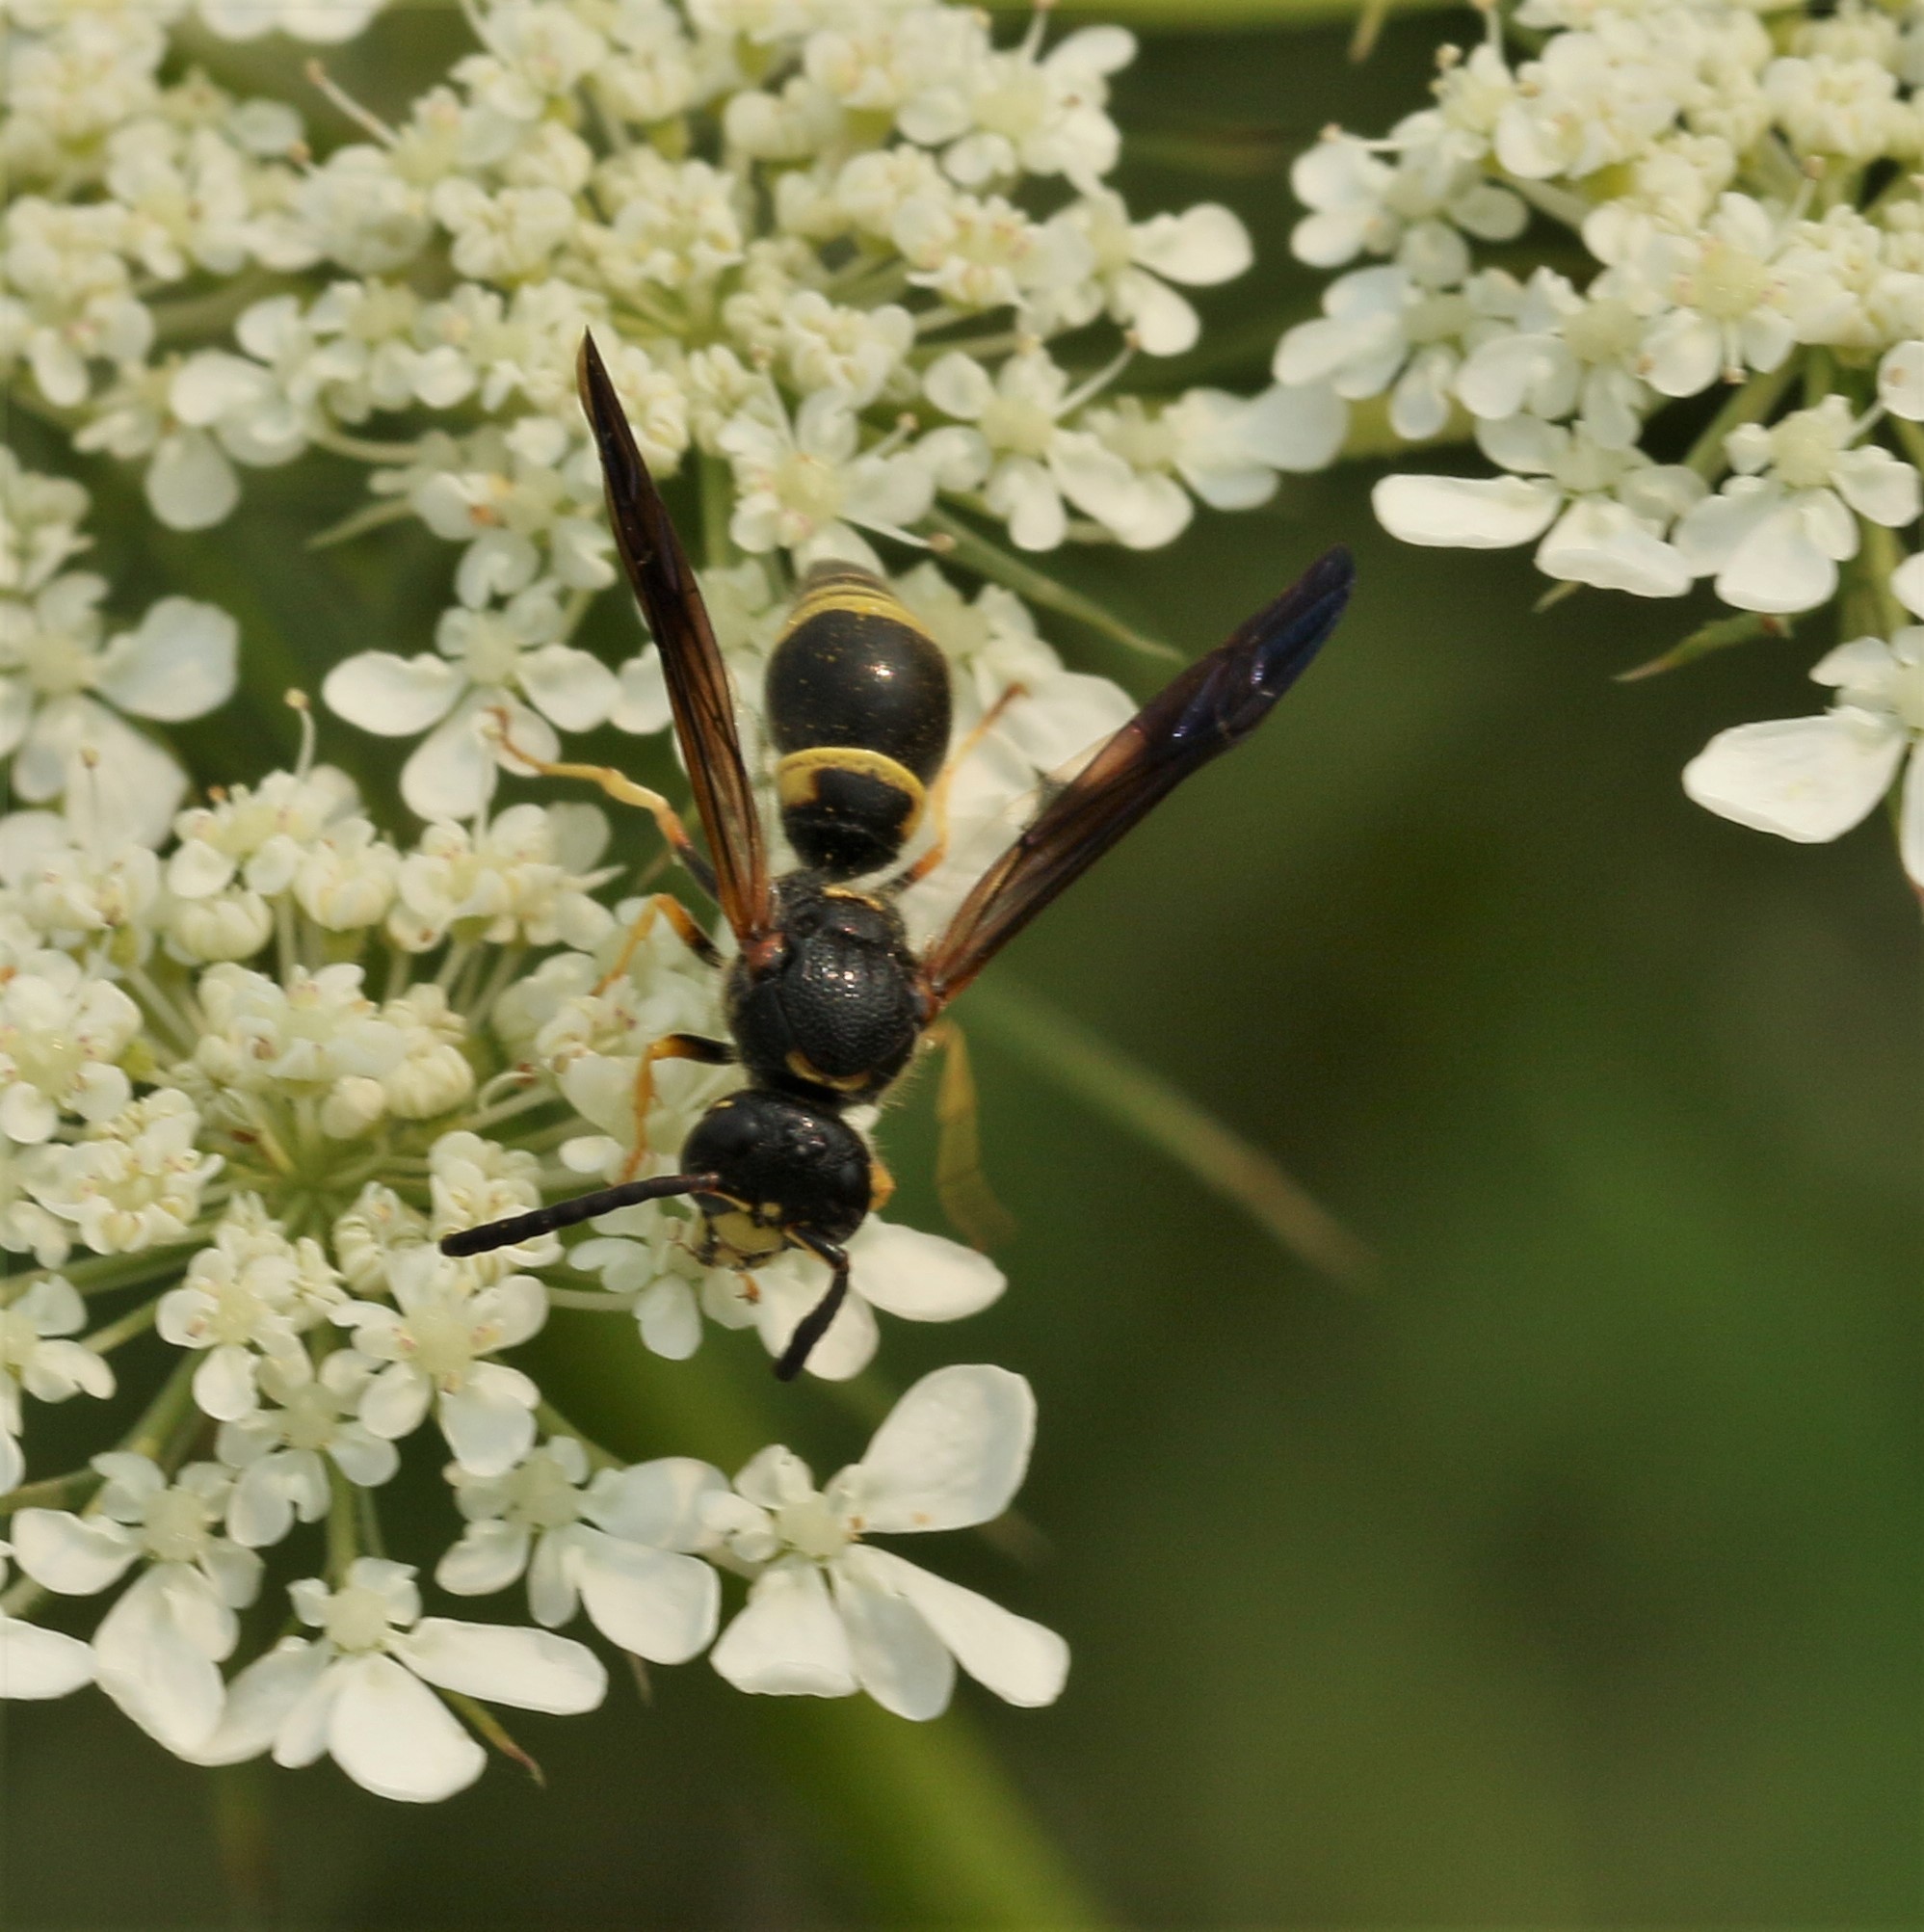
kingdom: Animalia
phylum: Arthropoda
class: Insecta
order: Hymenoptera
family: Vespidae
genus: Ancistrocerus
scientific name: Ancistrocerus unifasciatus
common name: One-banded mason wasp
